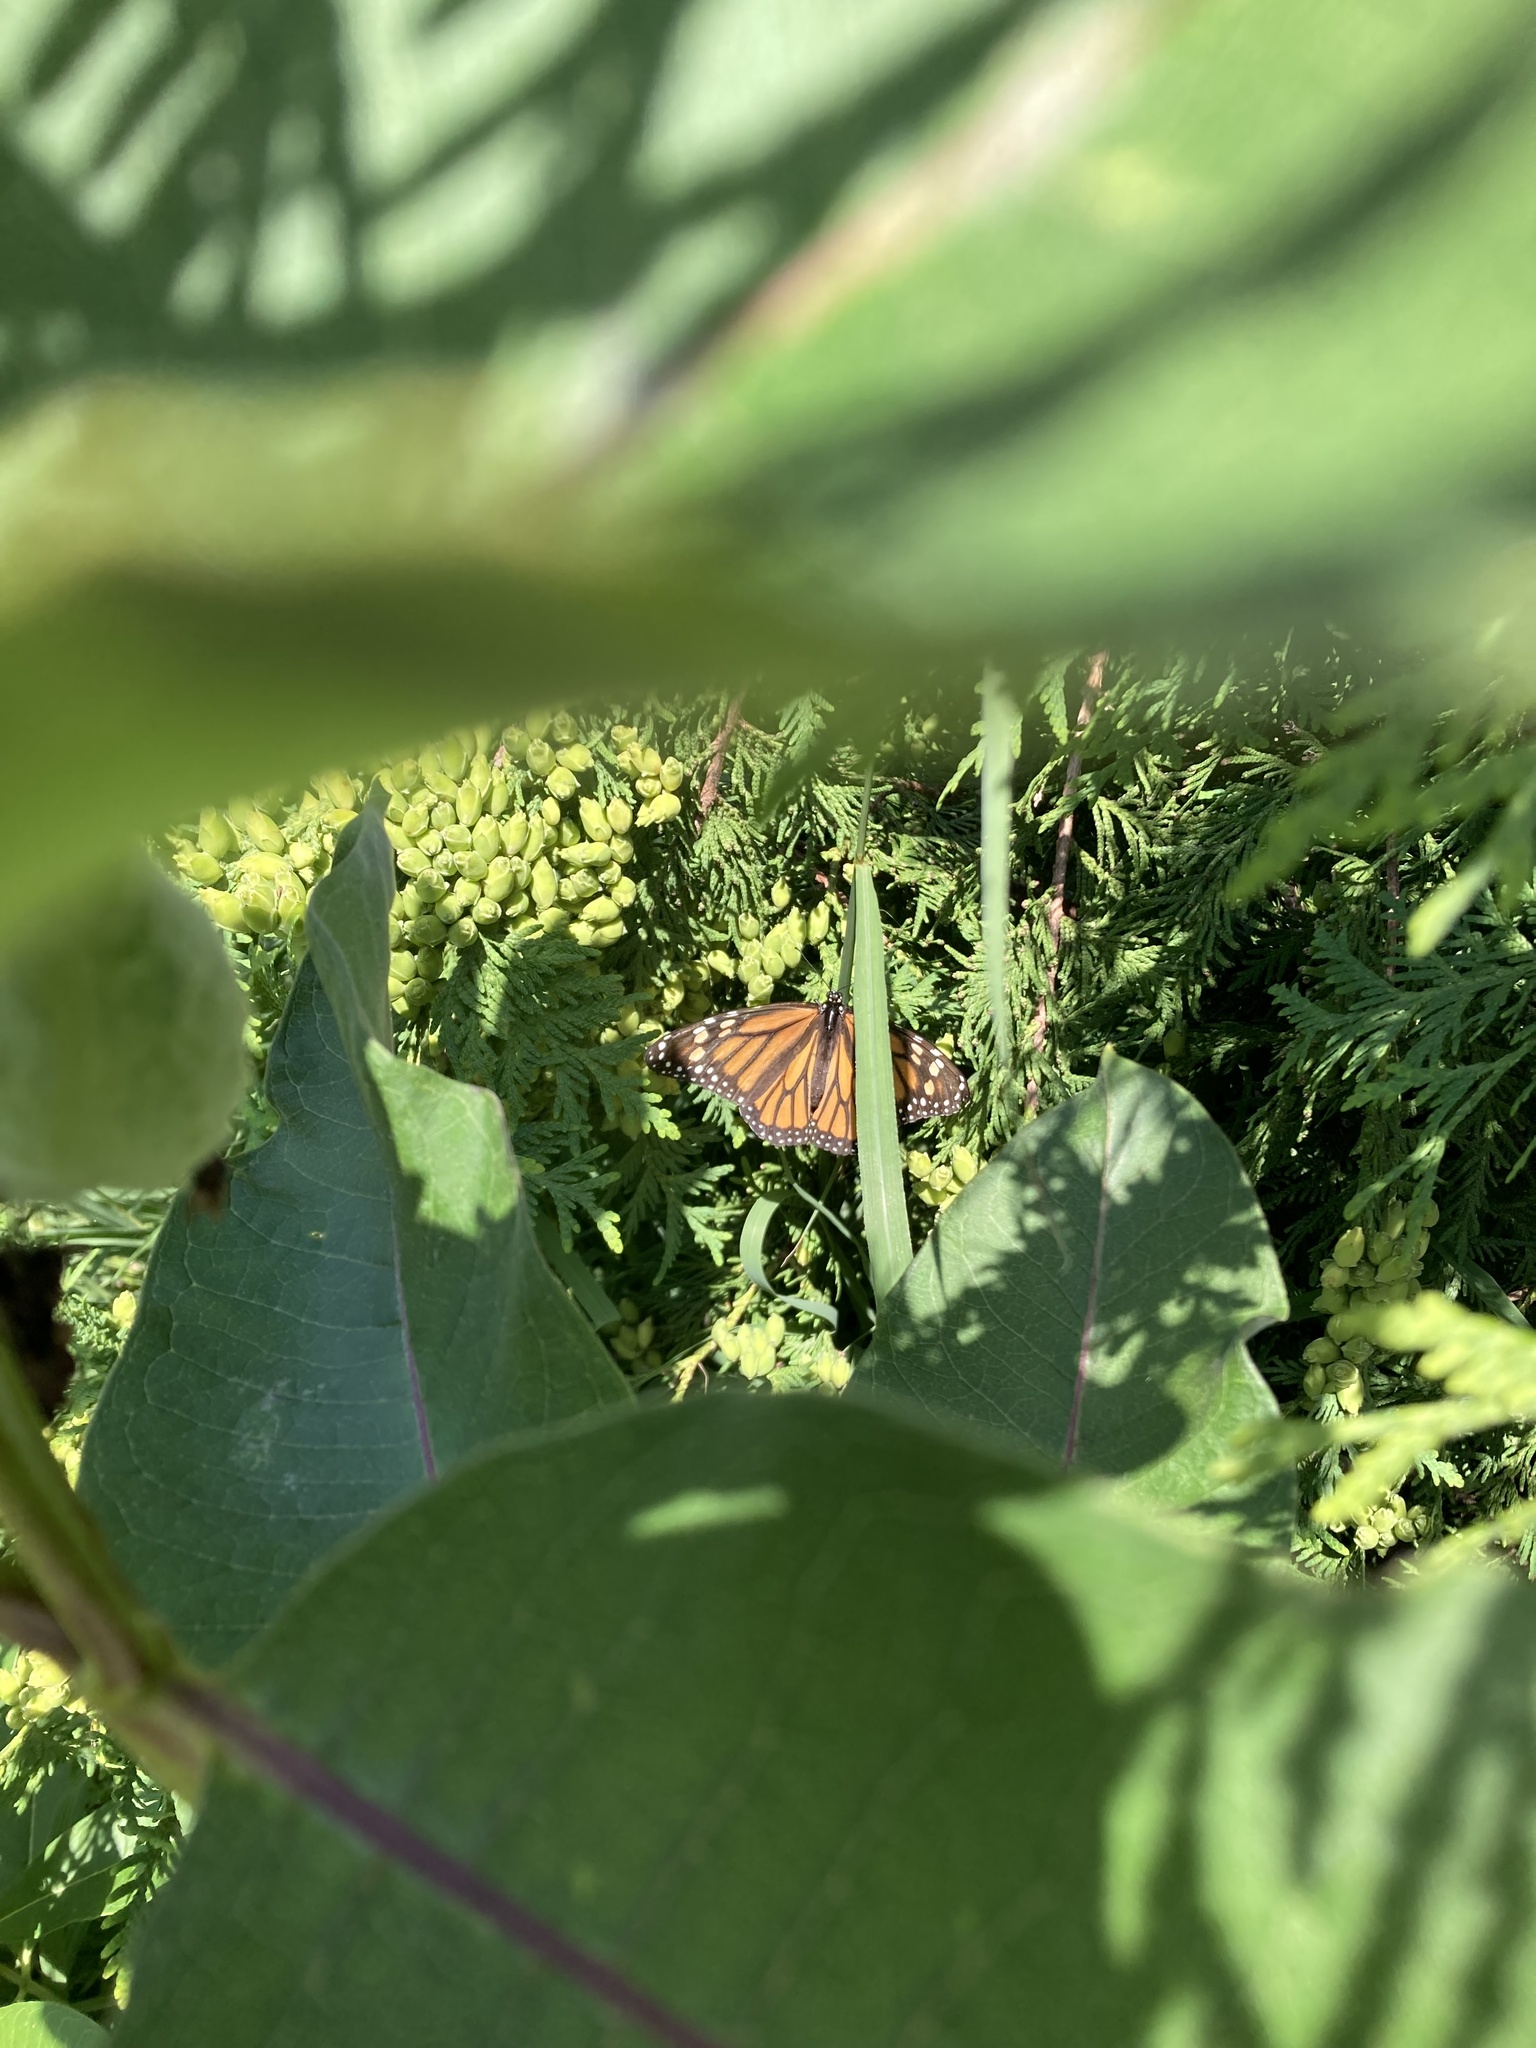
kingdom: Animalia
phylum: Arthropoda
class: Insecta
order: Lepidoptera
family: Nymphalidae
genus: Danaus
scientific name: Danaus plexippus
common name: Monarch
